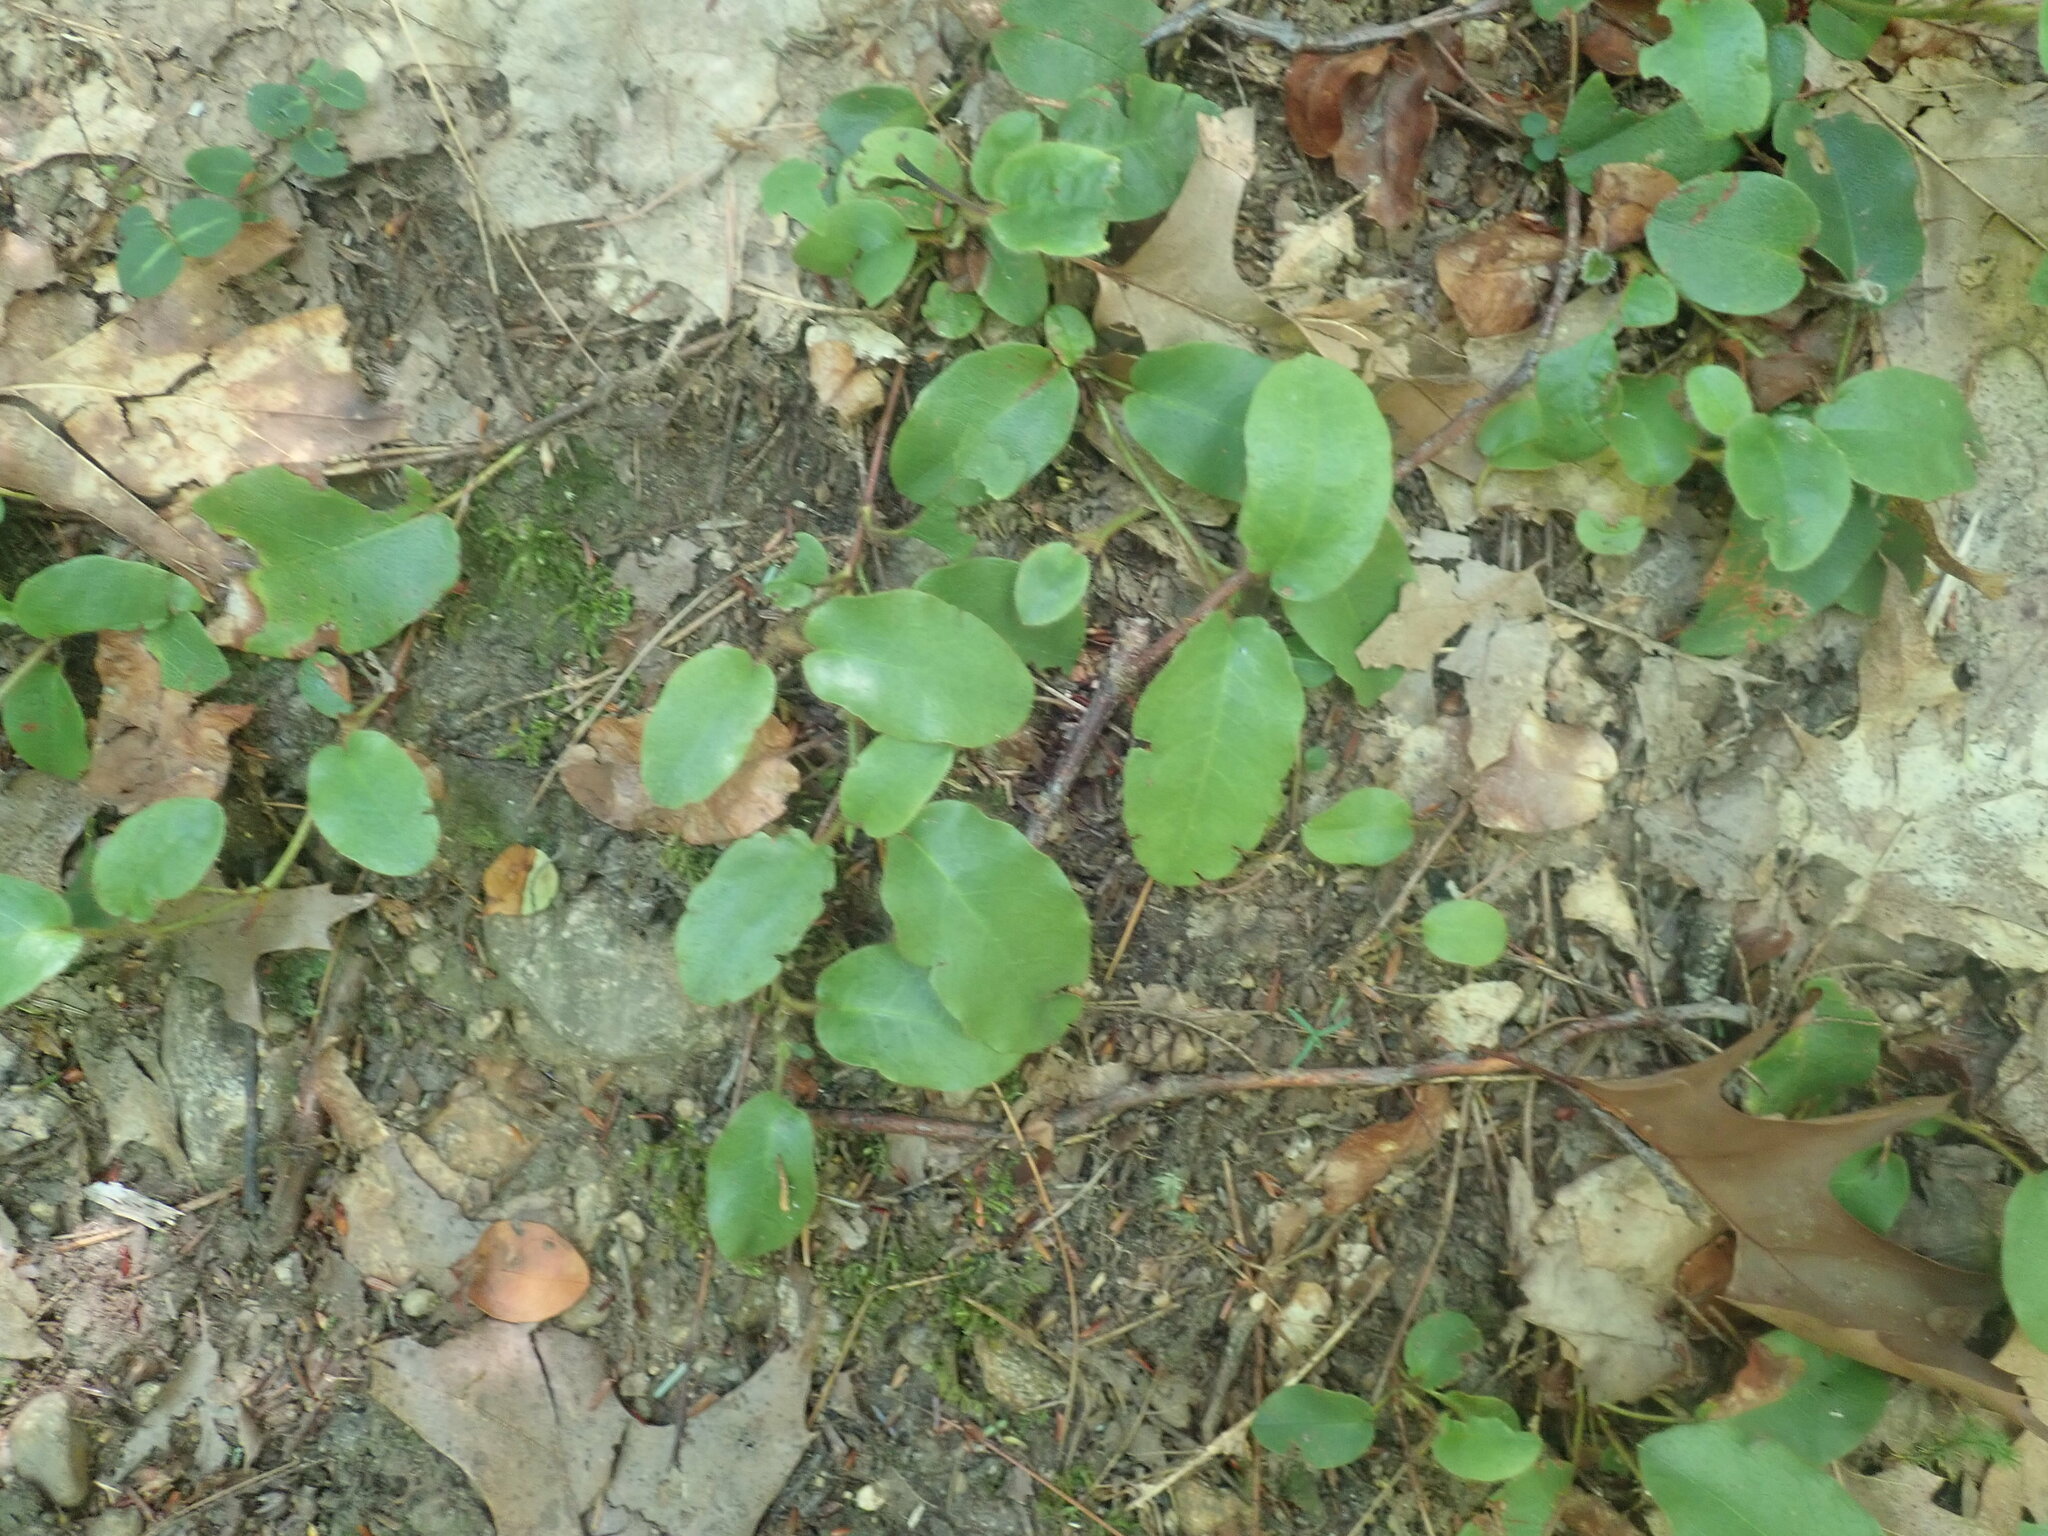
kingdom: Plantae
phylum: Tracheophyta
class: Magnoliopsida
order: Ericales
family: Ericaceae
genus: Epigaea
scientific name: Epigaea repens
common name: Gravelroot
